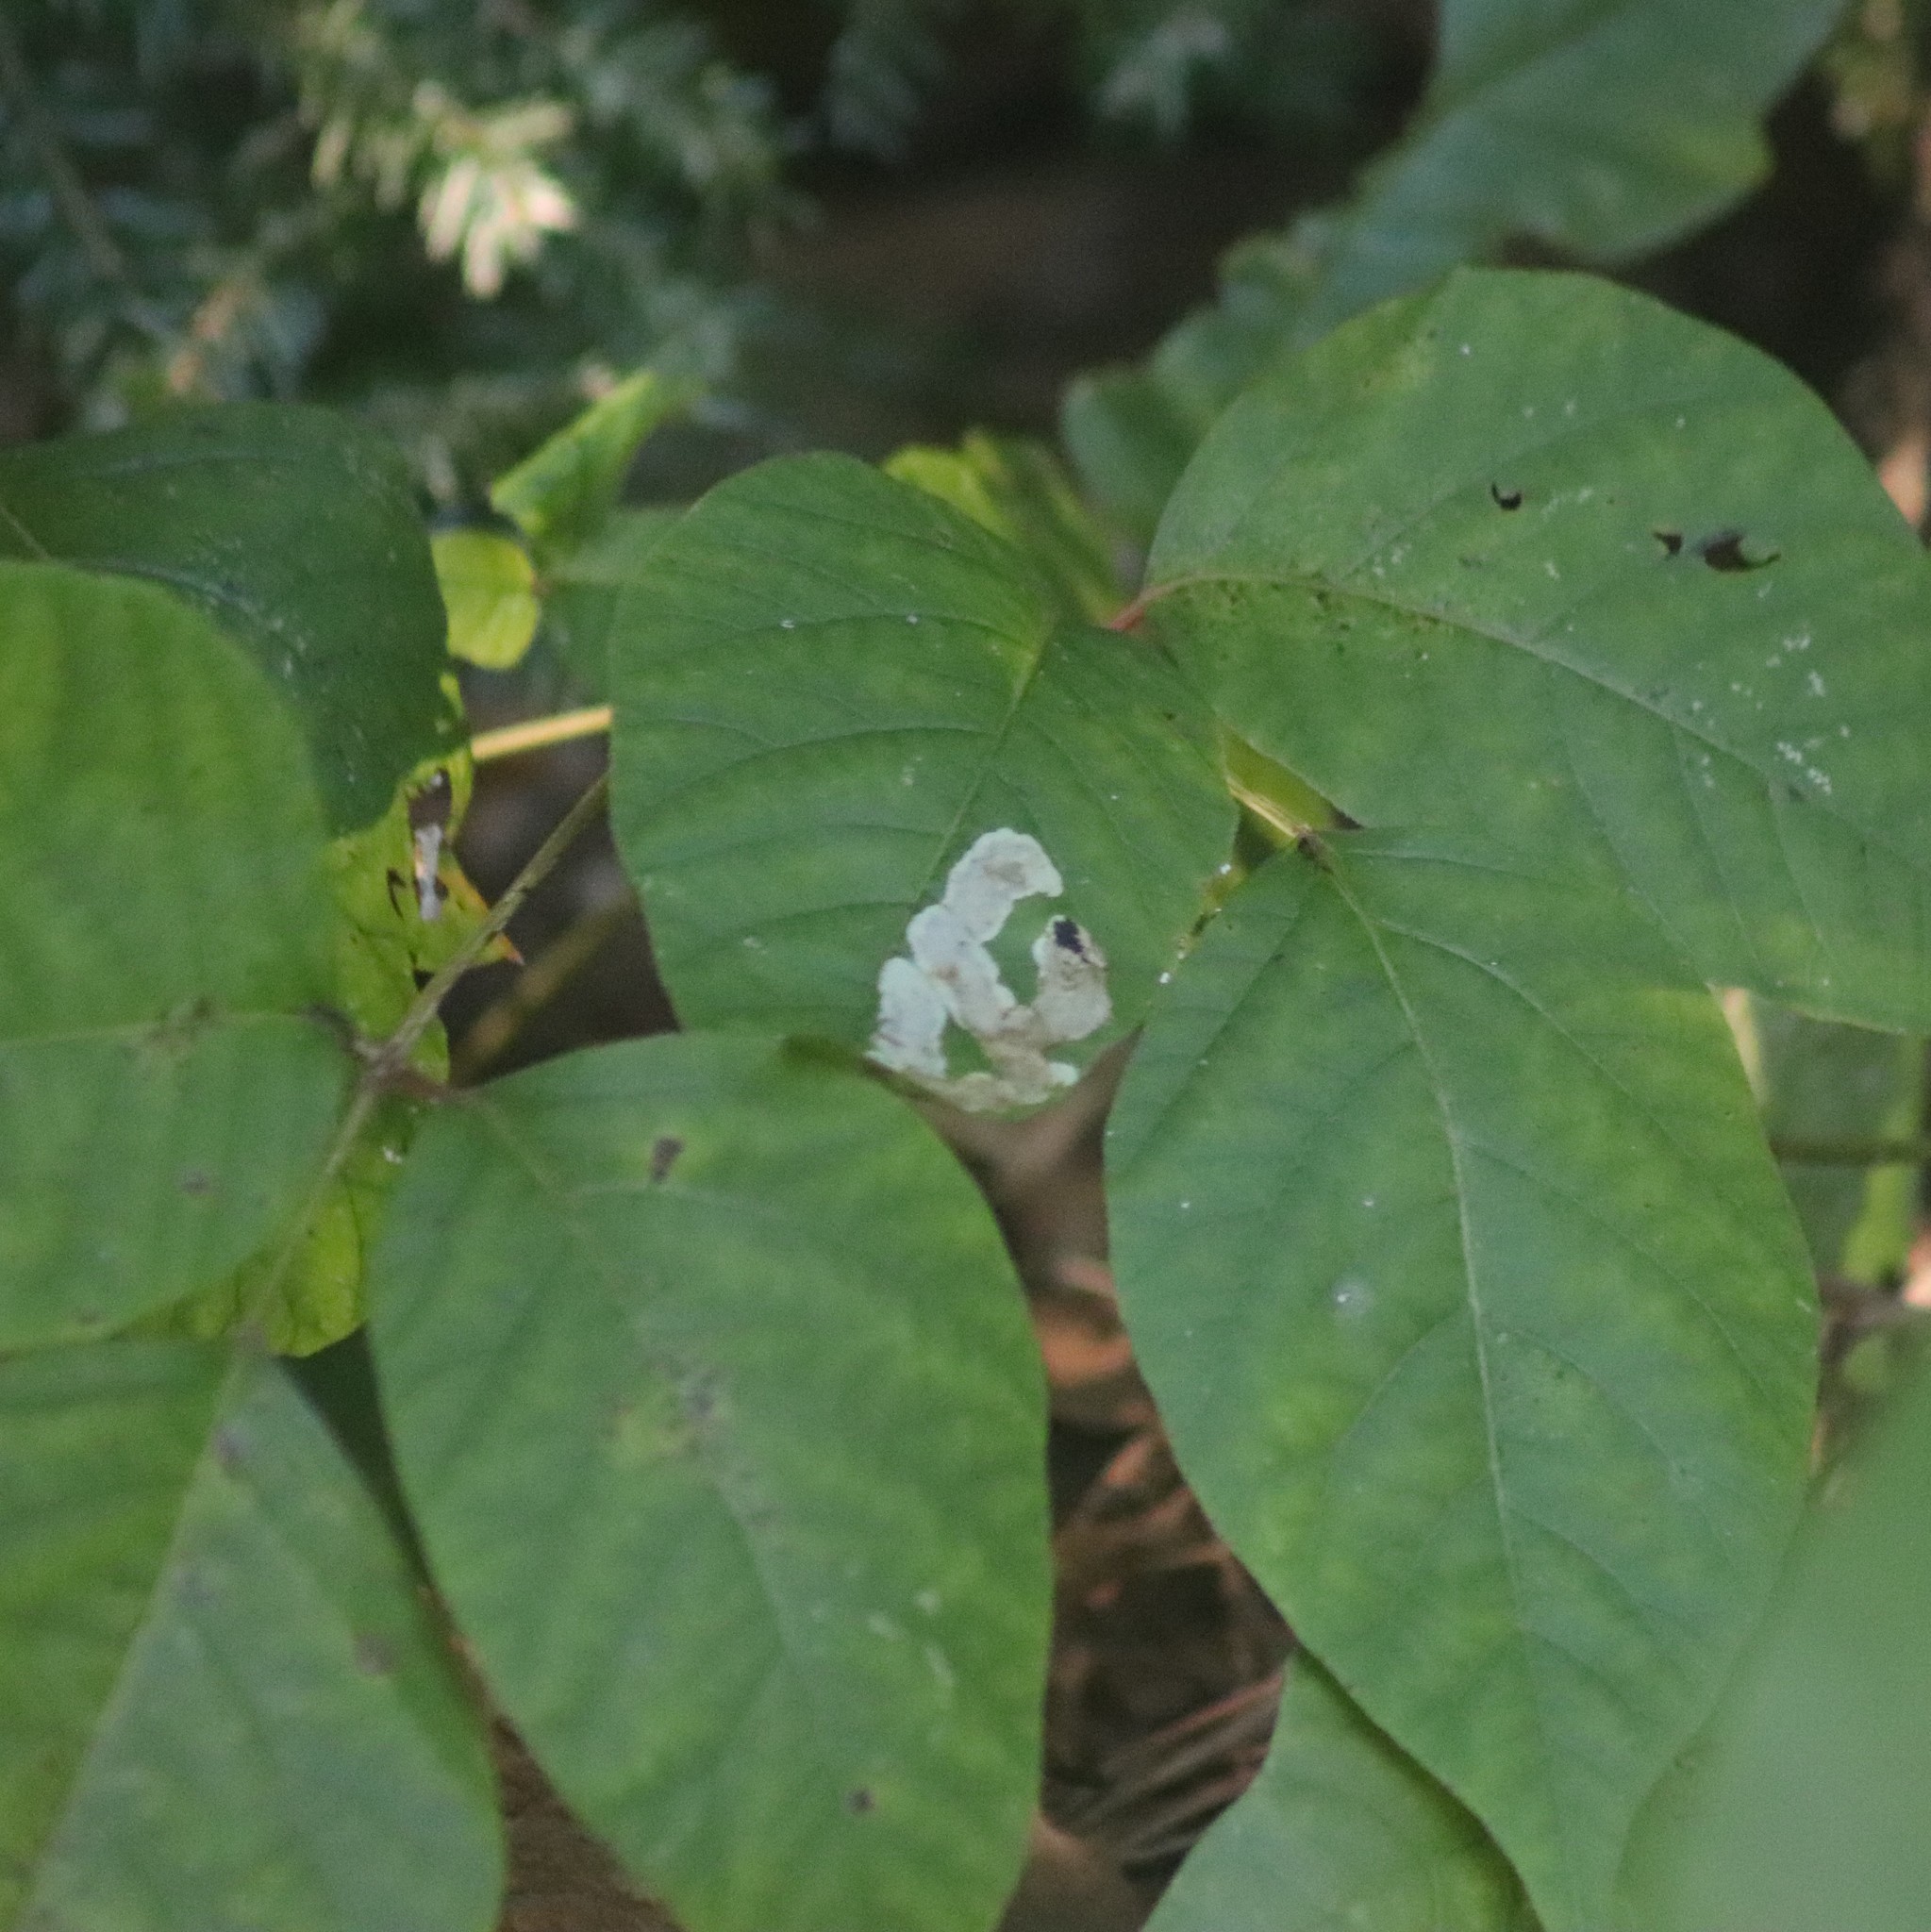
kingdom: Animalia
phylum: Arthropoda
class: Insecta
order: Lepidoptera
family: Gracillariidae
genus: Cameraria
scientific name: Cameraria guttifinitella
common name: Poison ivy leaf-miner moth
